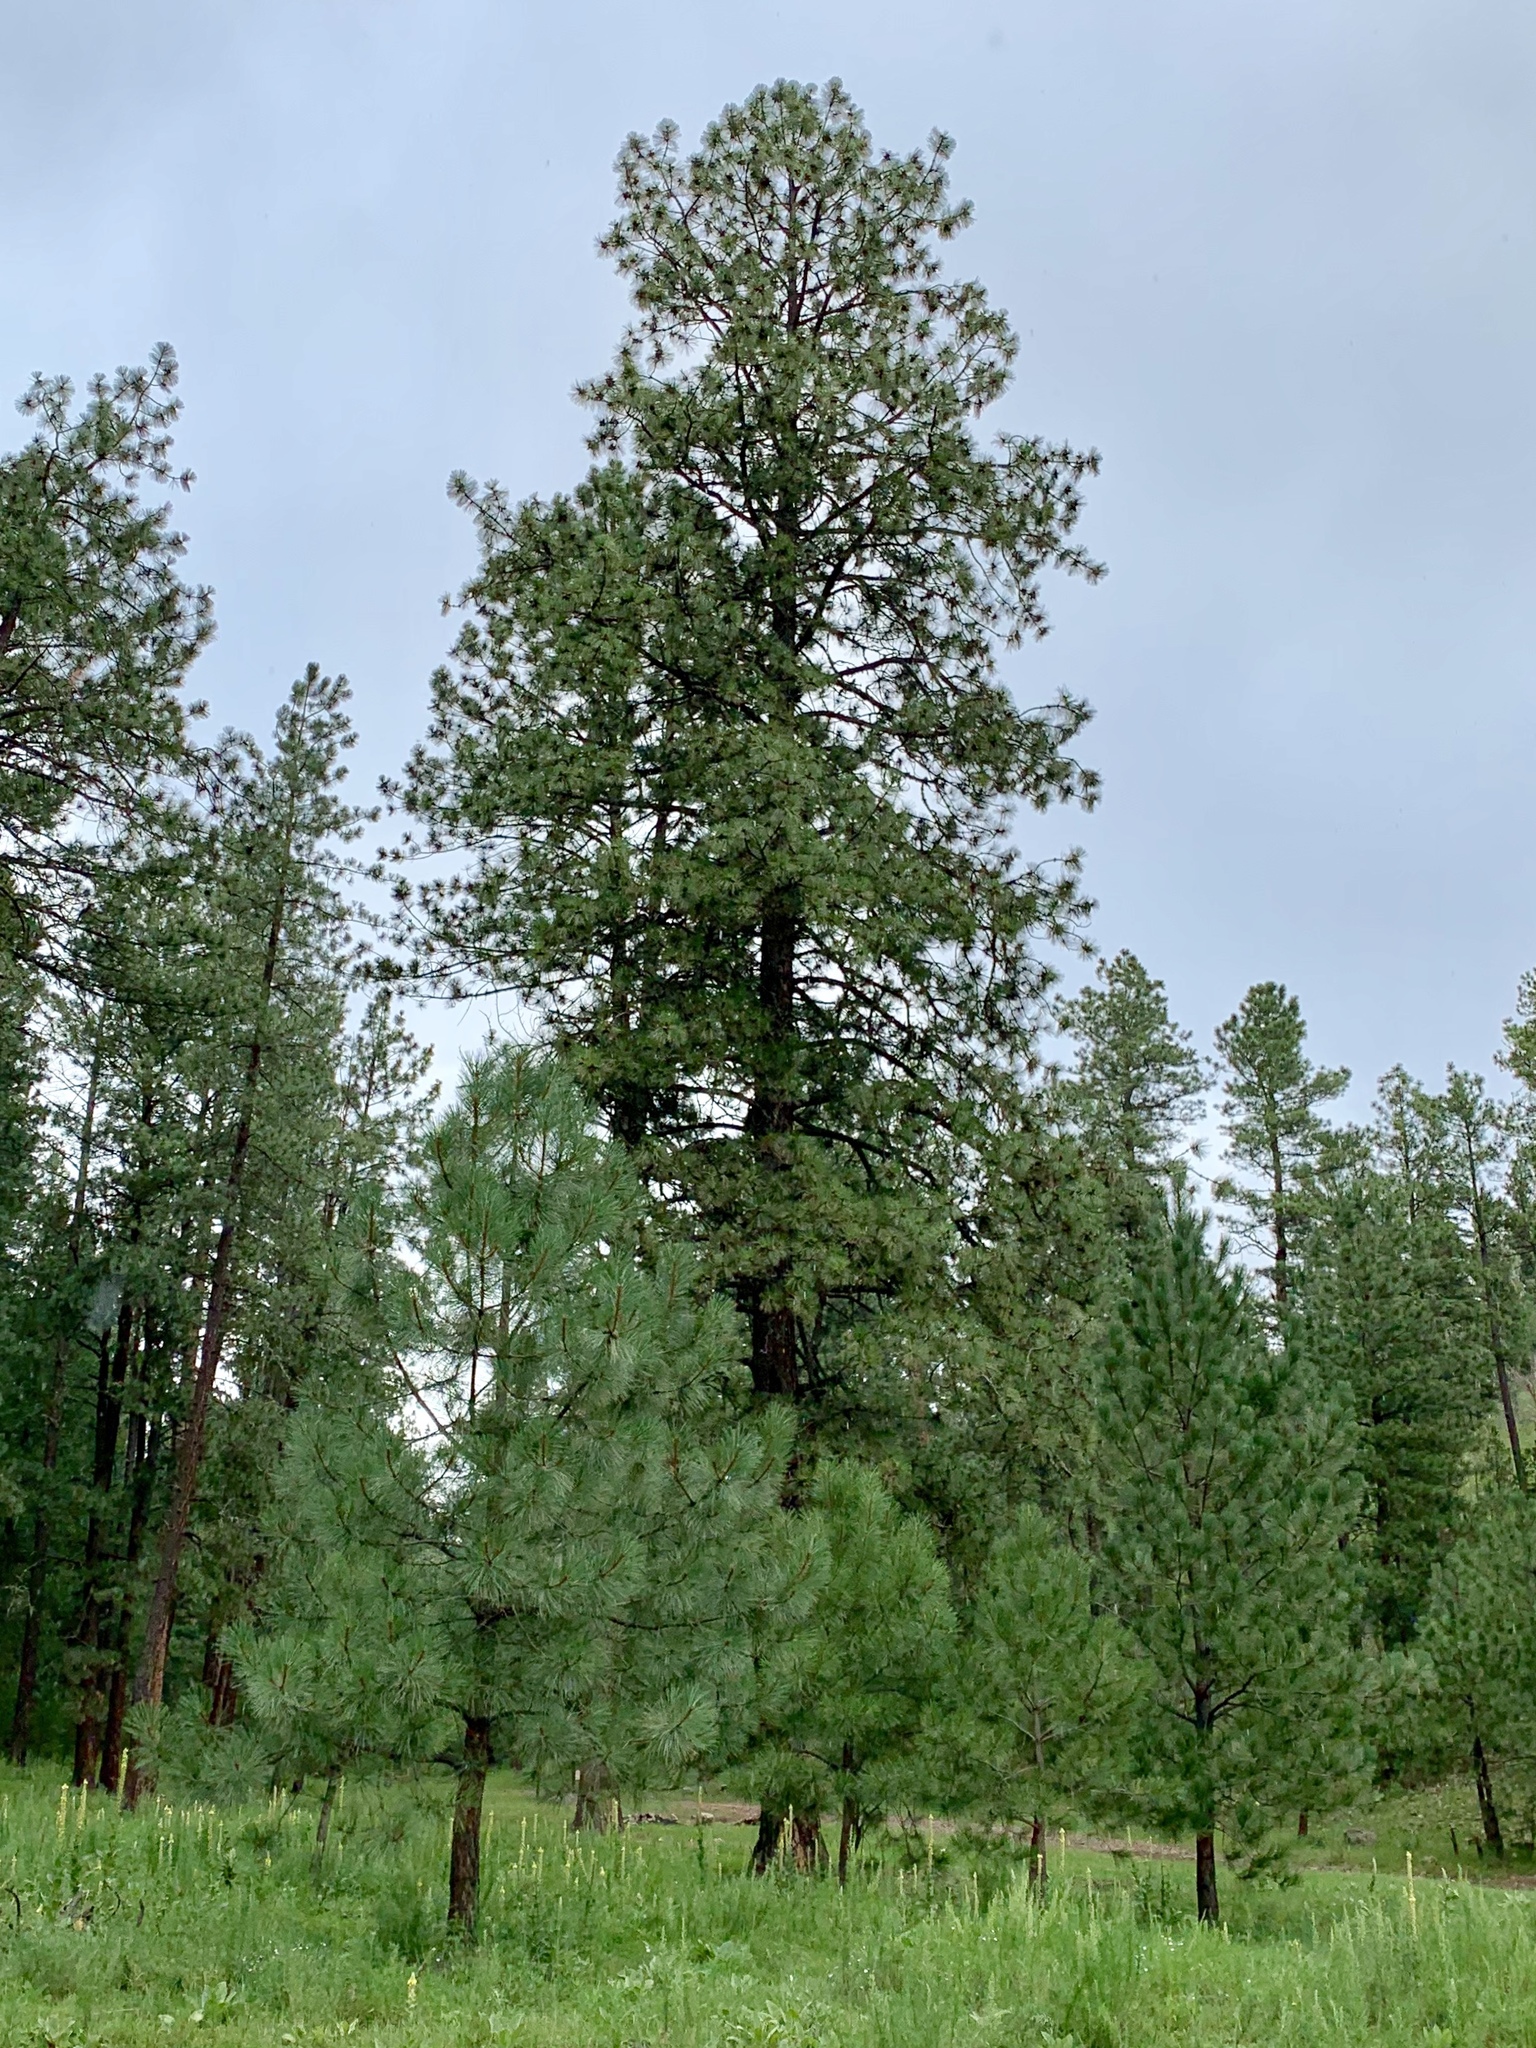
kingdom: Plantae
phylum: Tracheophyta
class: Pinopsida
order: Pinales
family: Pinaceae
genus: Pinus
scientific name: Pinus ponderosa
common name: Western yellow-pine
